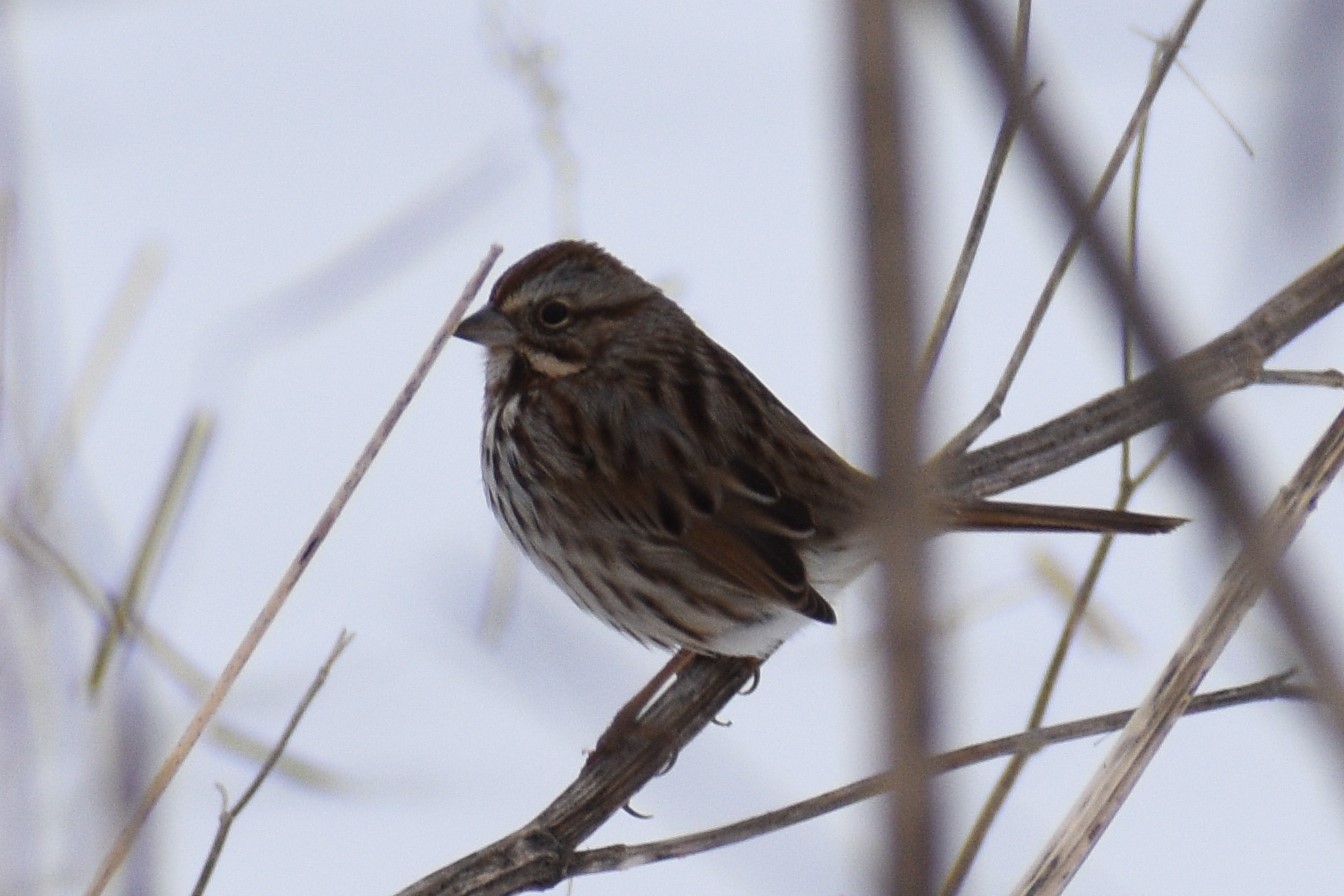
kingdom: Animalia
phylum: Chordata
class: Aves
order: Passeriformes
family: Passerellidae
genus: Melospiza
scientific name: Melospiza melodia
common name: Song sparrow
